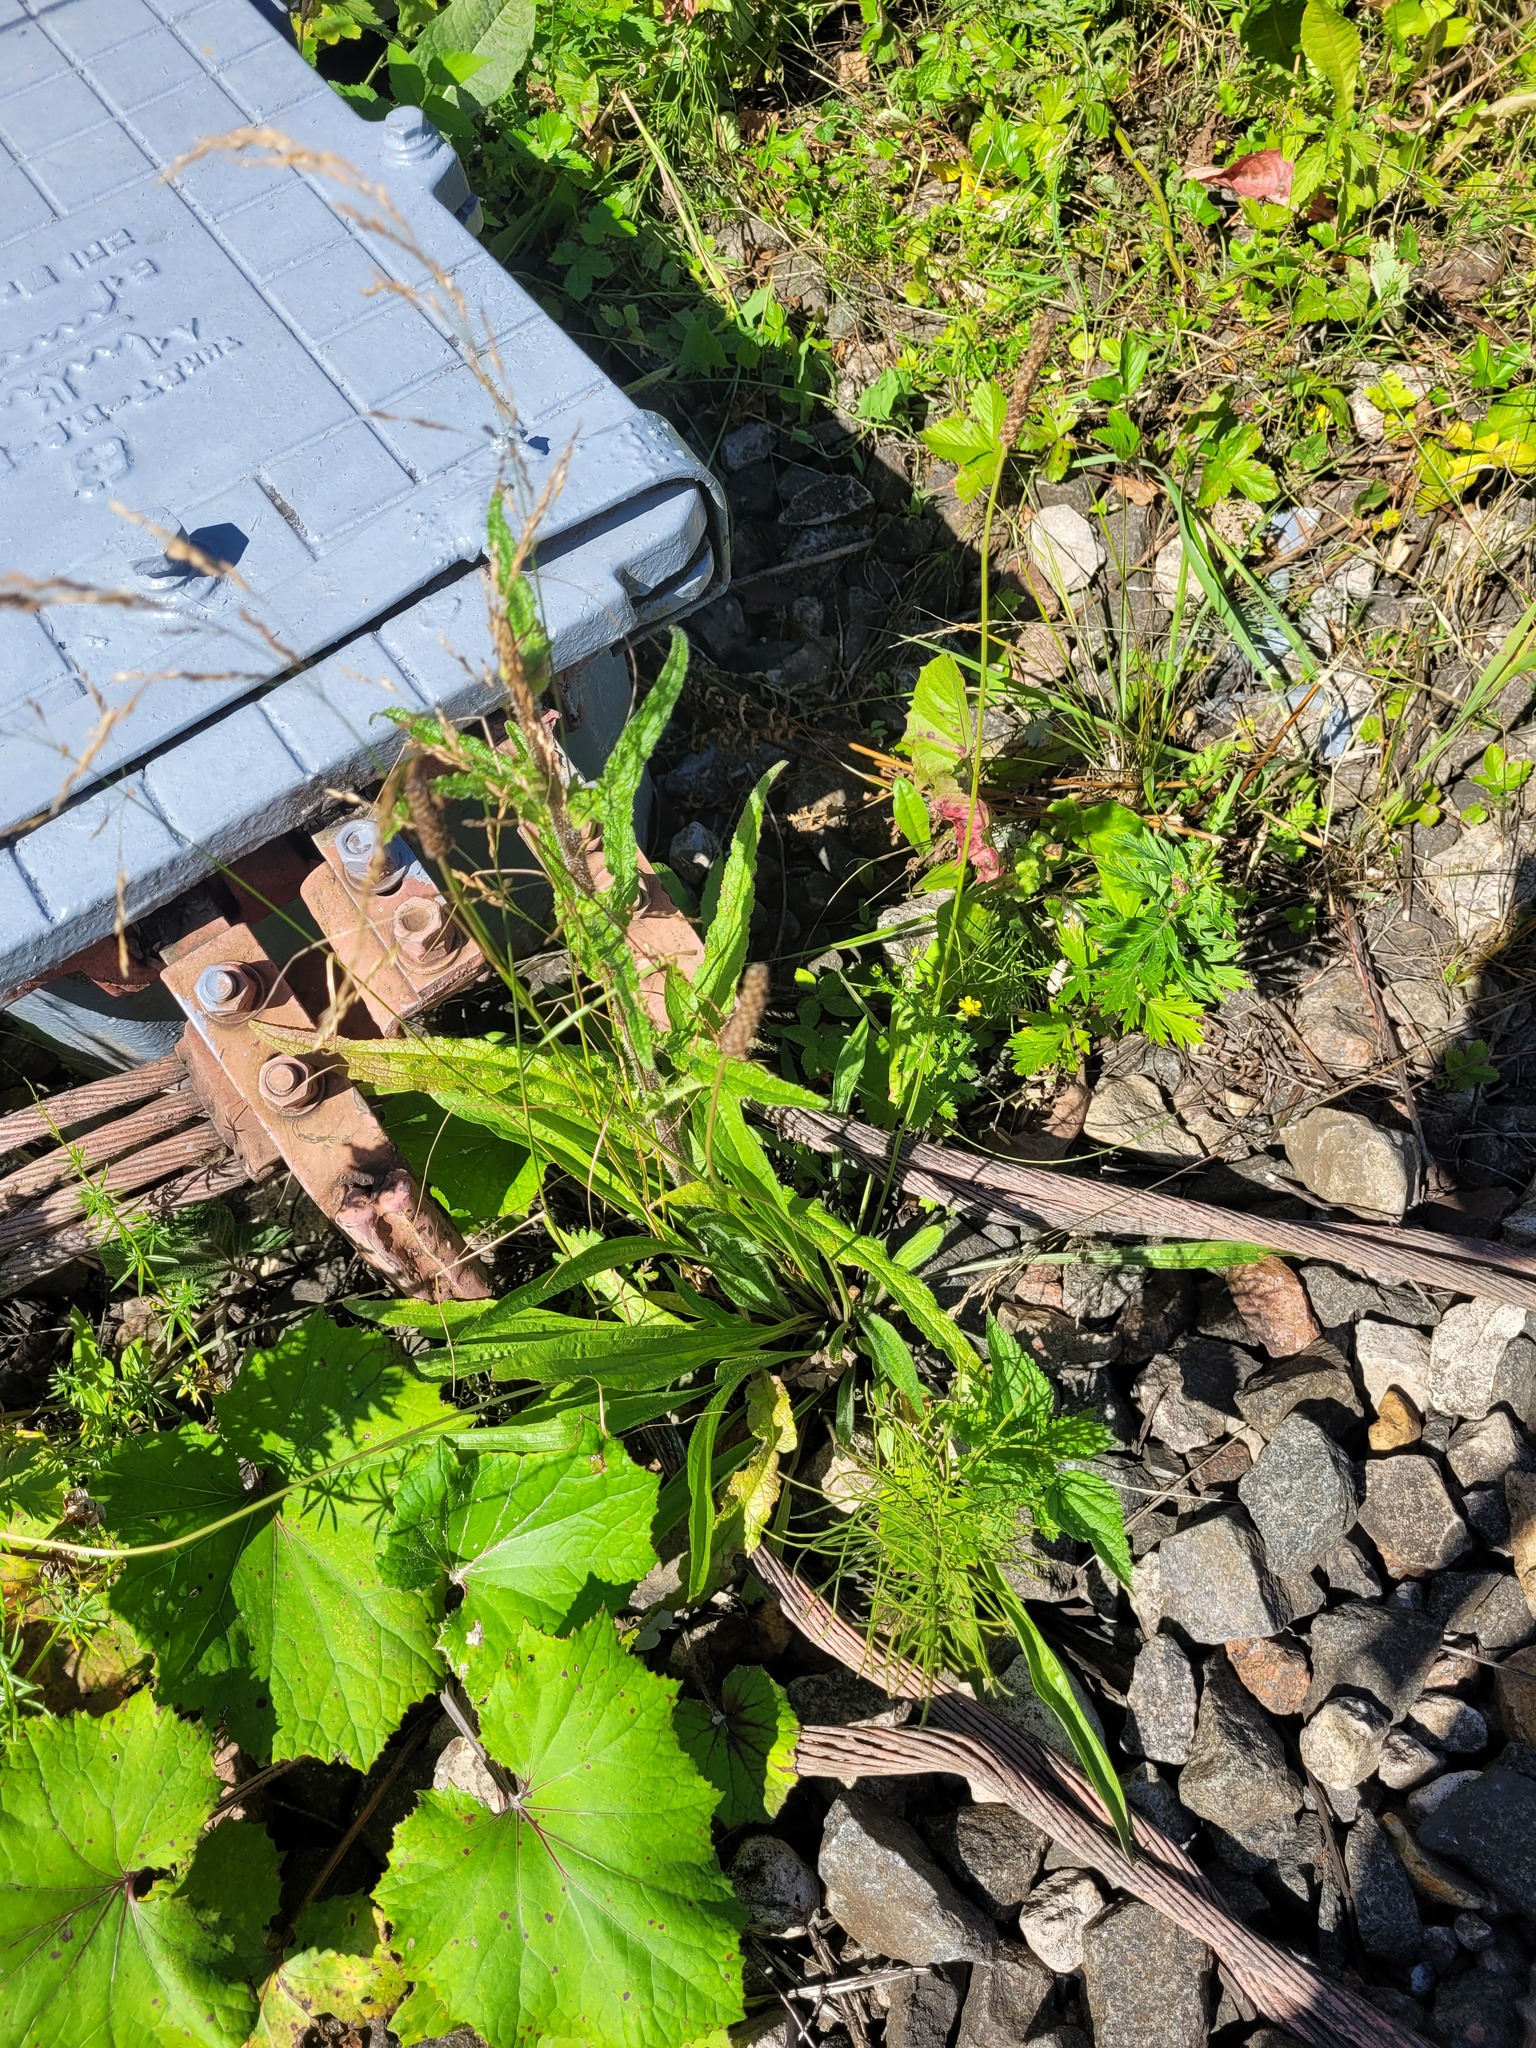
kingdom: Plantae
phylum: Tracheophyta
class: Magnoliopsida
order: Asterales
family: Campanulaceae
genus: Campanula
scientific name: Campanula cervicaria
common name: Bristly bellflower
